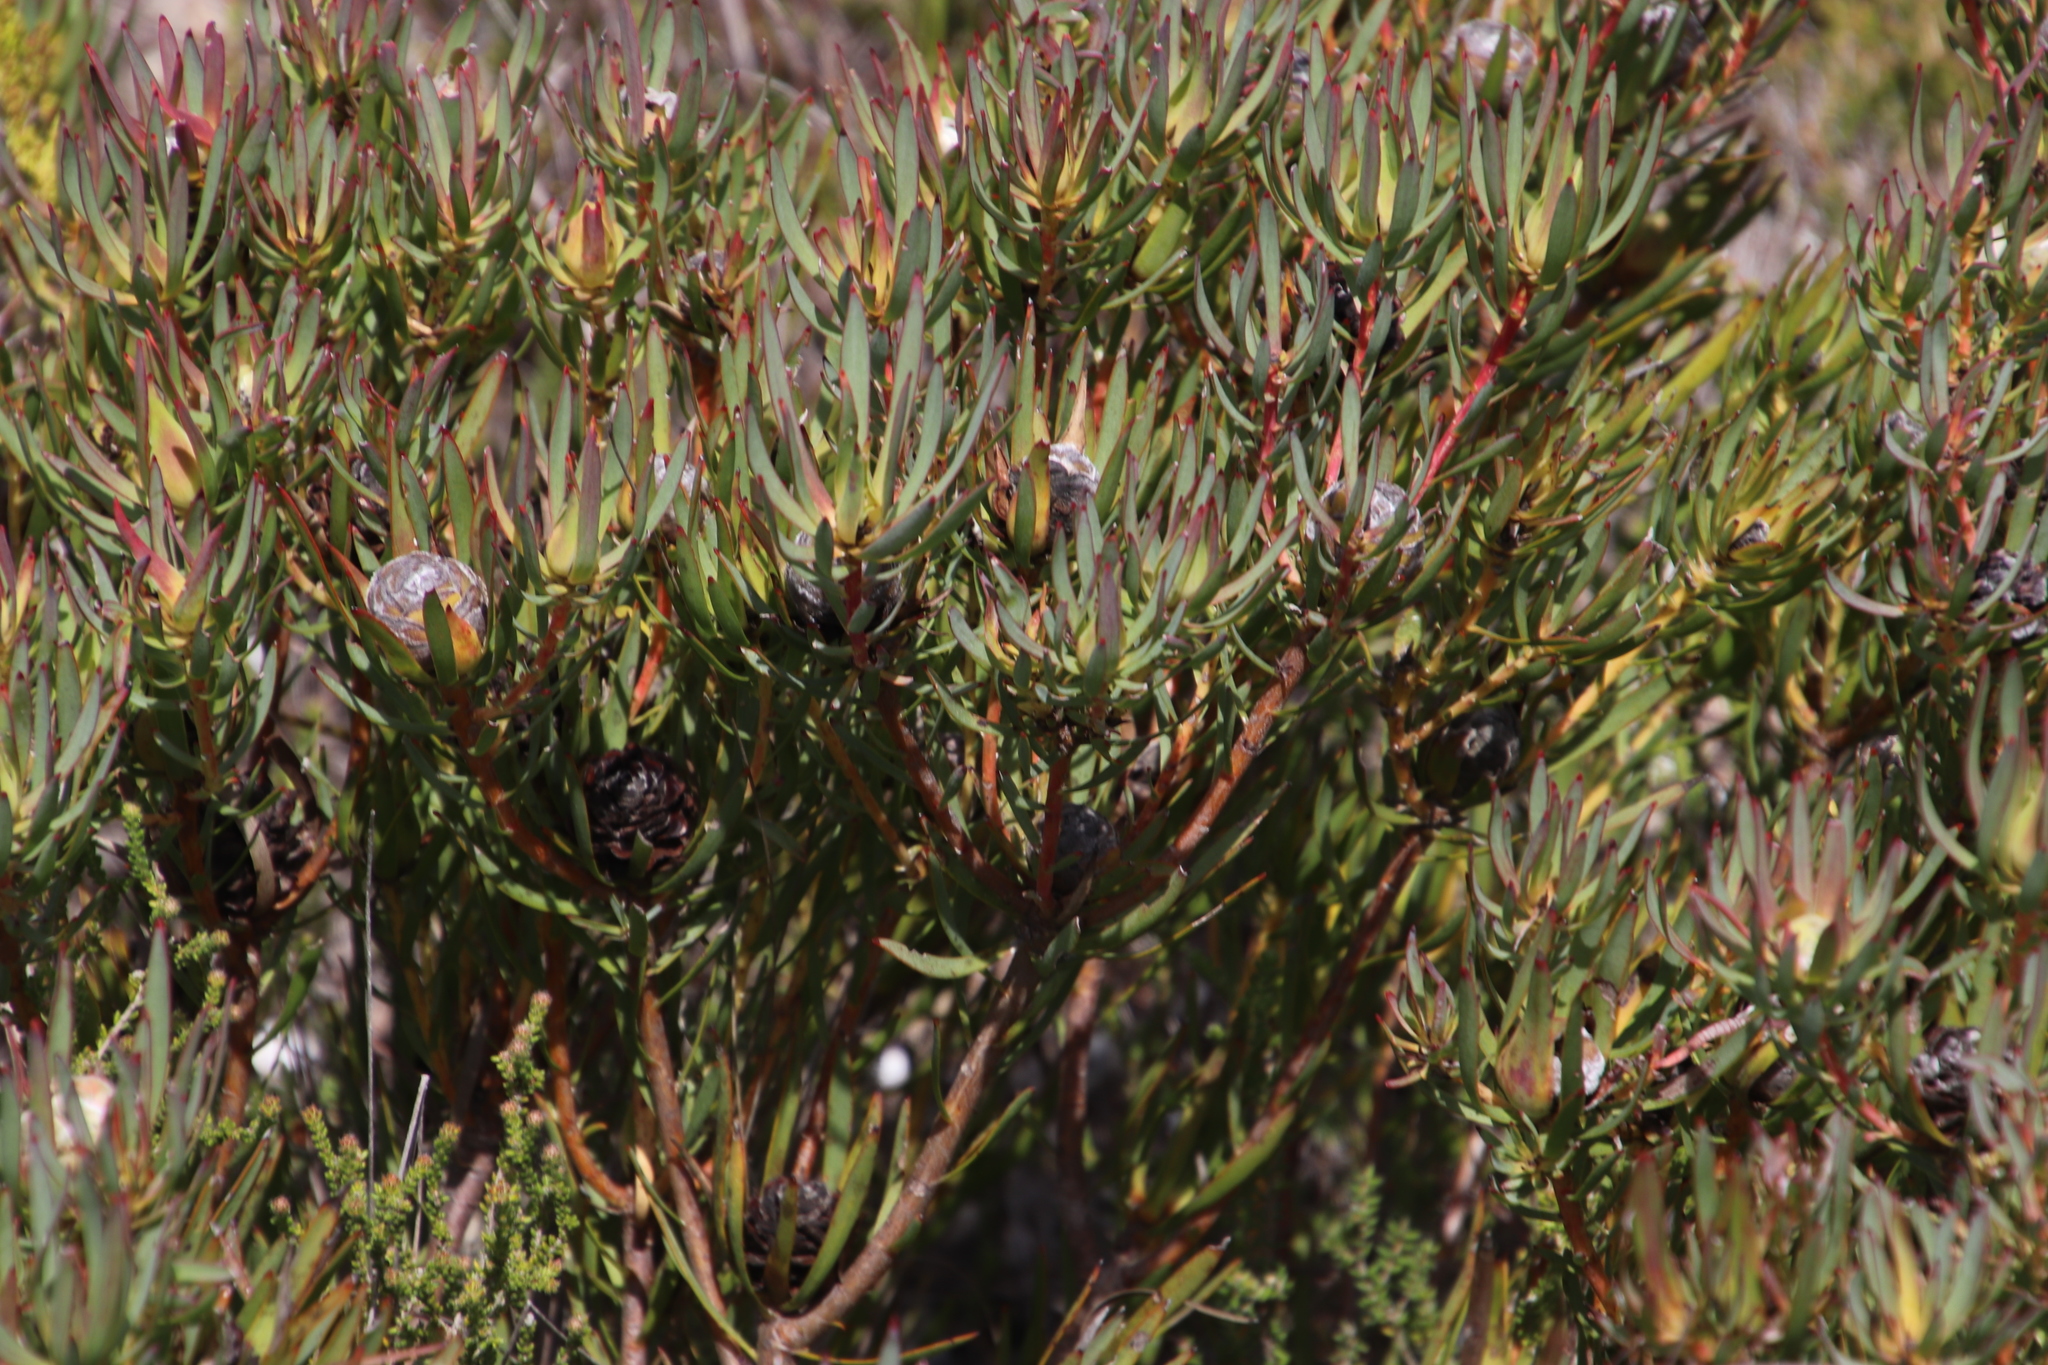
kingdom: Plantae
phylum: Tracheophyta
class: Magnoliopsida
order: Proteales
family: Proteaceae
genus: Leucadendron
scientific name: Leucadendron salignum
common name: Common sunshine conebush
